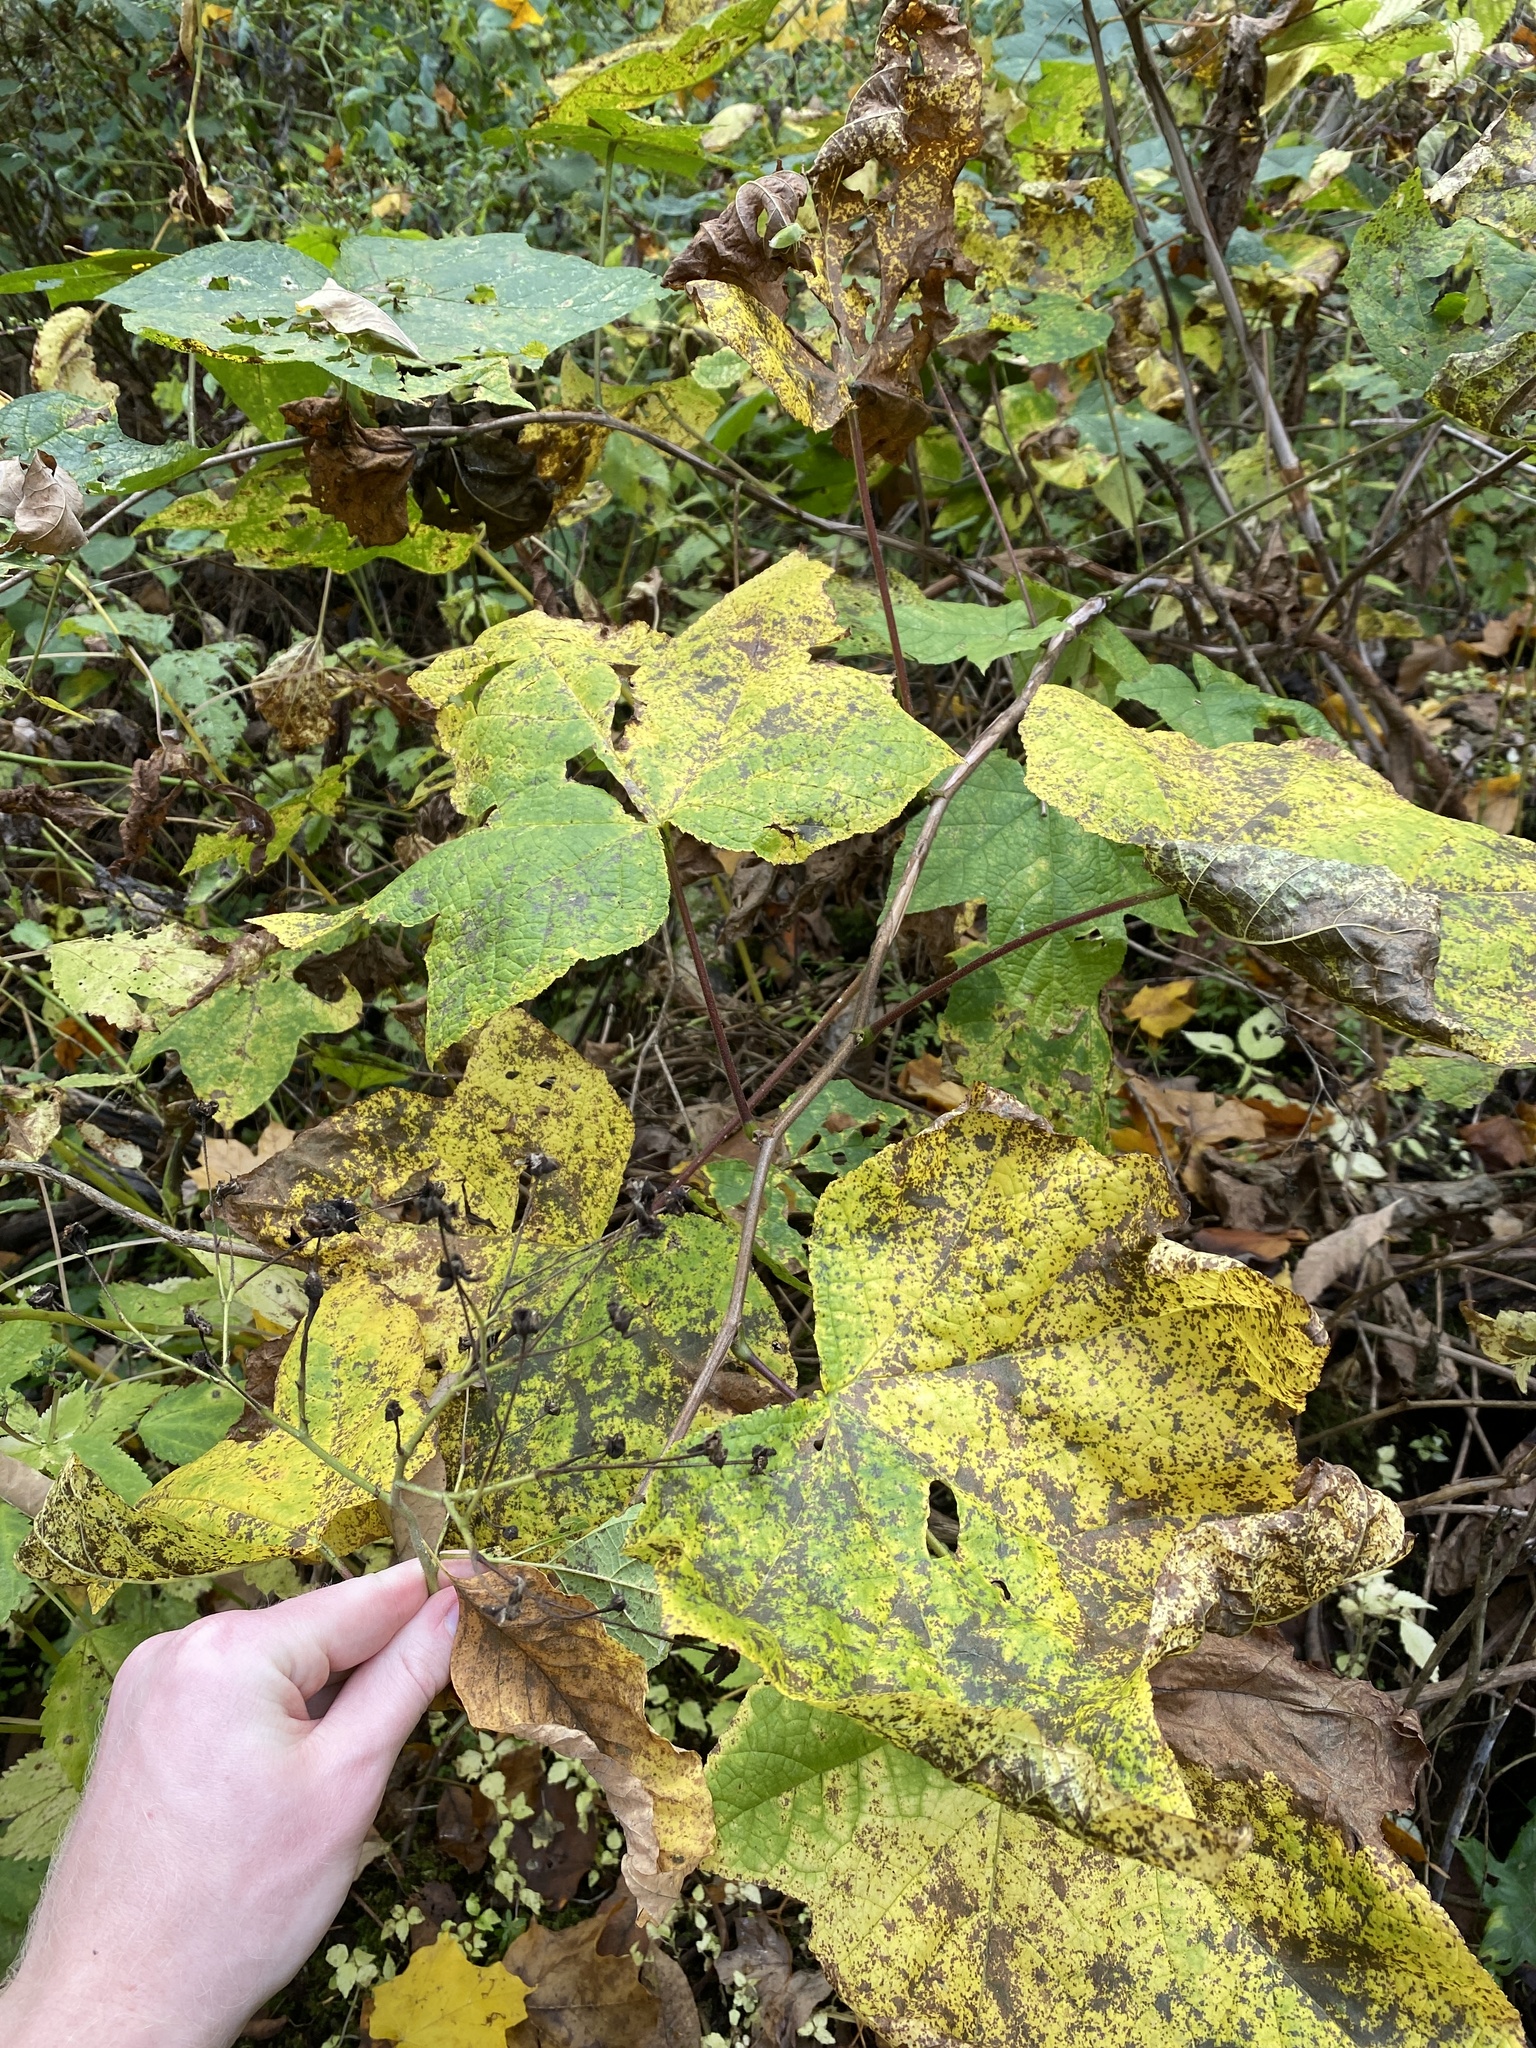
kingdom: Plantae
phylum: Tracheophyta
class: Magnoliopsida
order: Rosales
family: Rosaceae
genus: Rubus
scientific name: Rubus odoratus
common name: Purple-flowered raspberry
